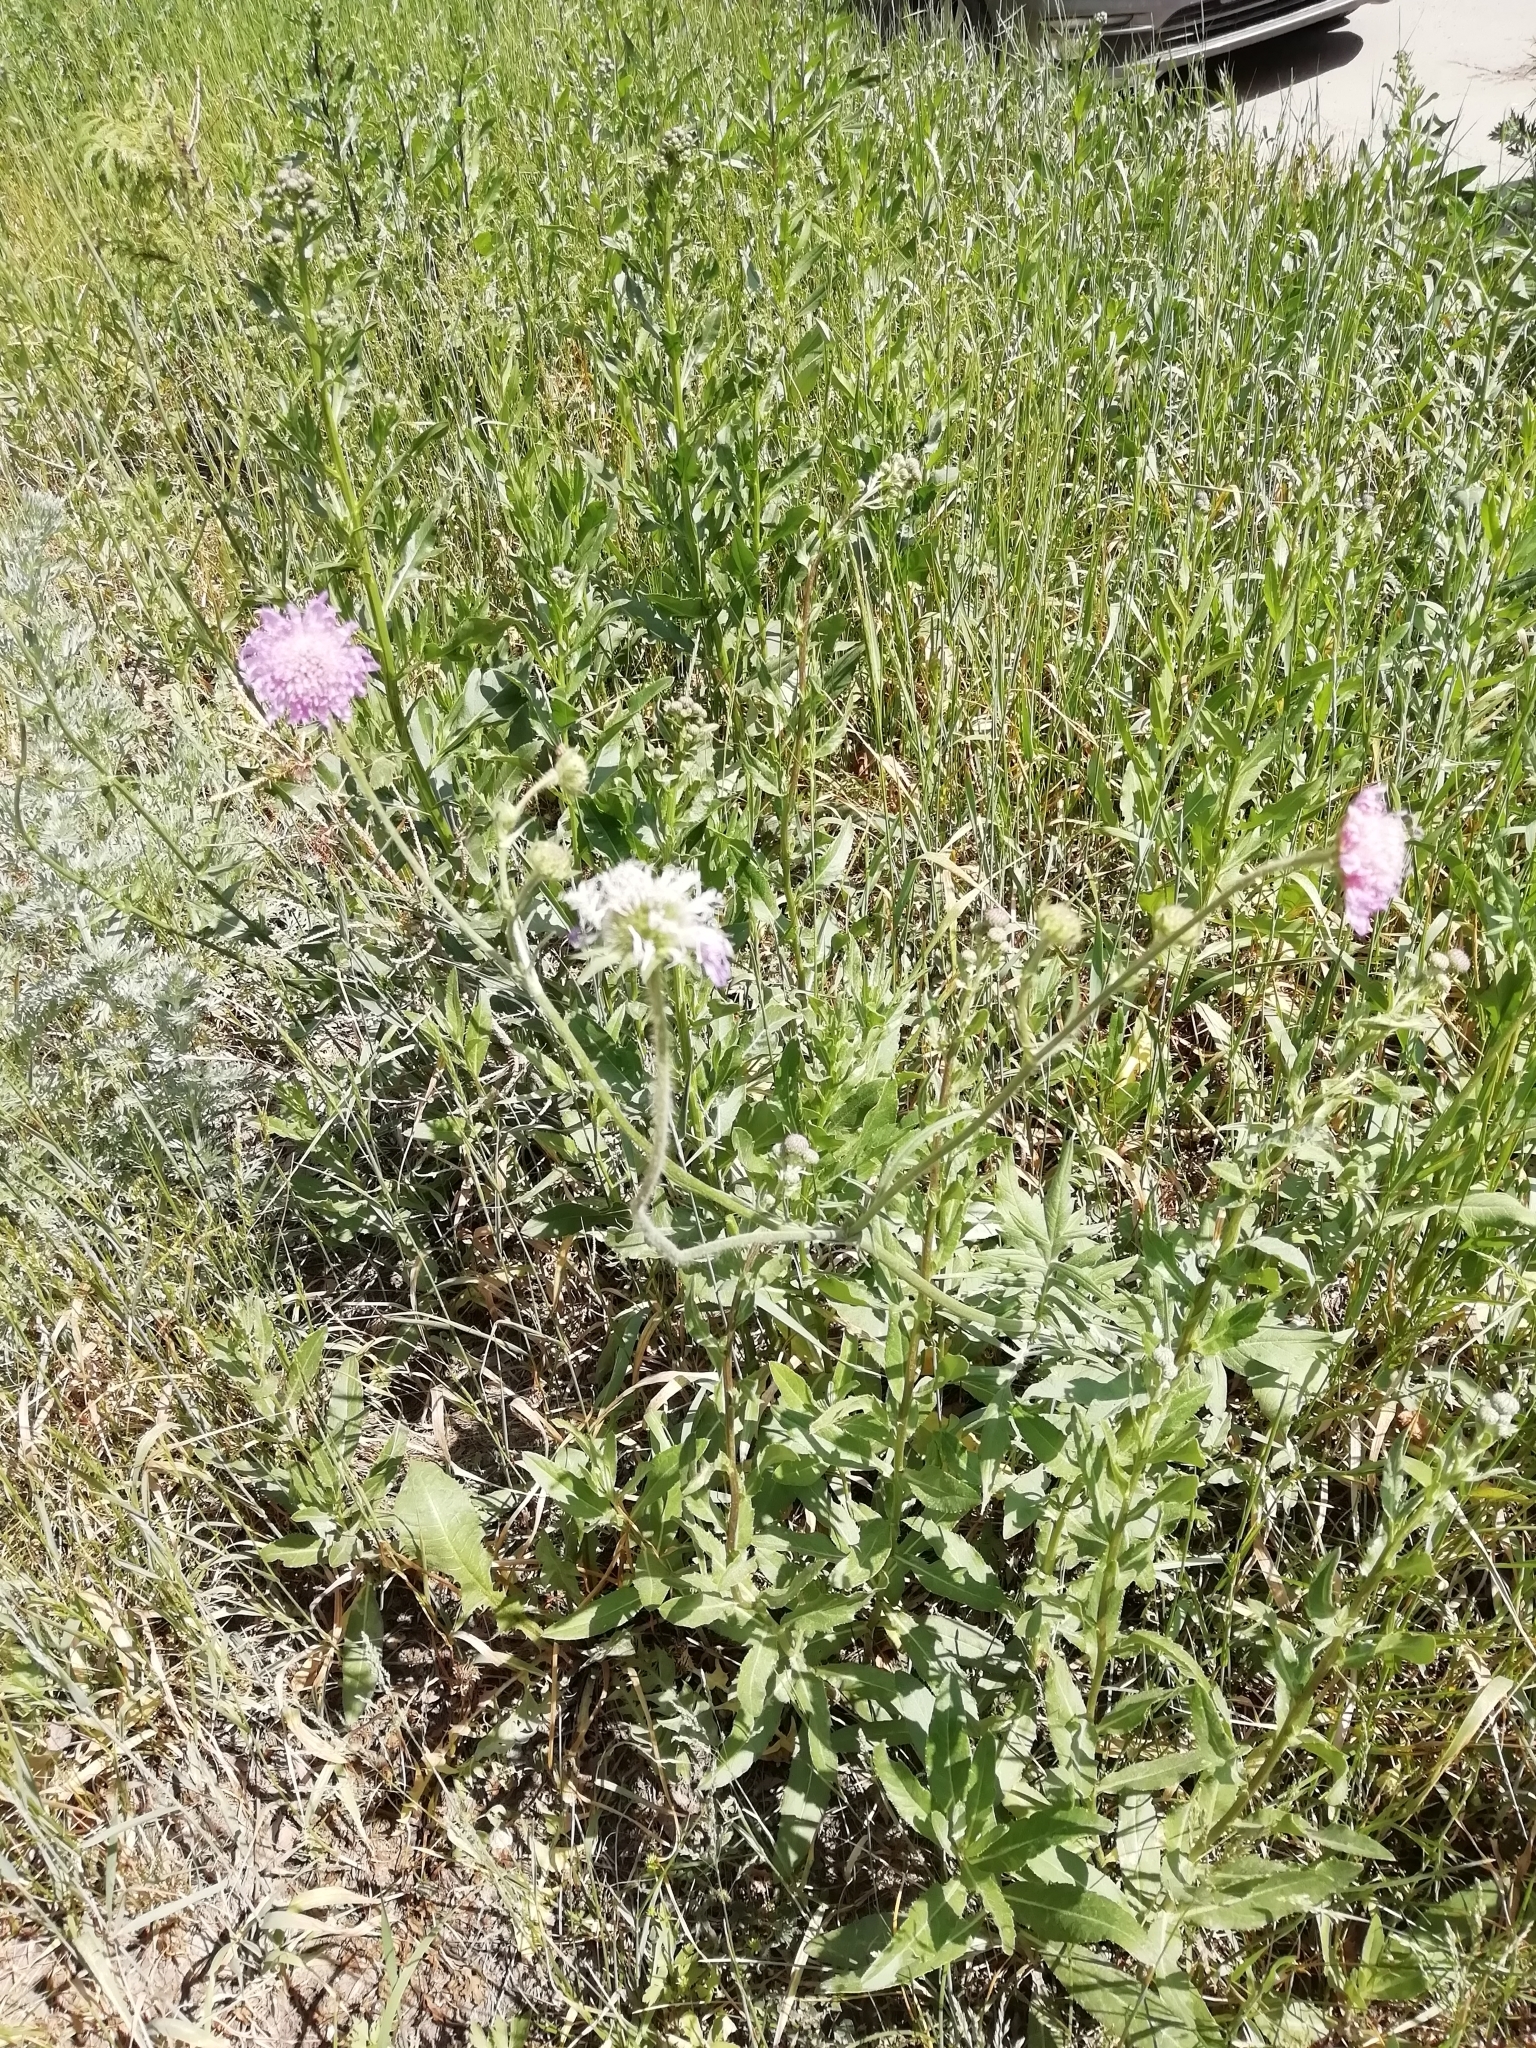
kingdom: Plantae
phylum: Tracheophyta
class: Magnoliopsida
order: Dipsacales
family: Caprifoliaceae
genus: Knautia
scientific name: Knautia arvensis
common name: Field scabiosa
